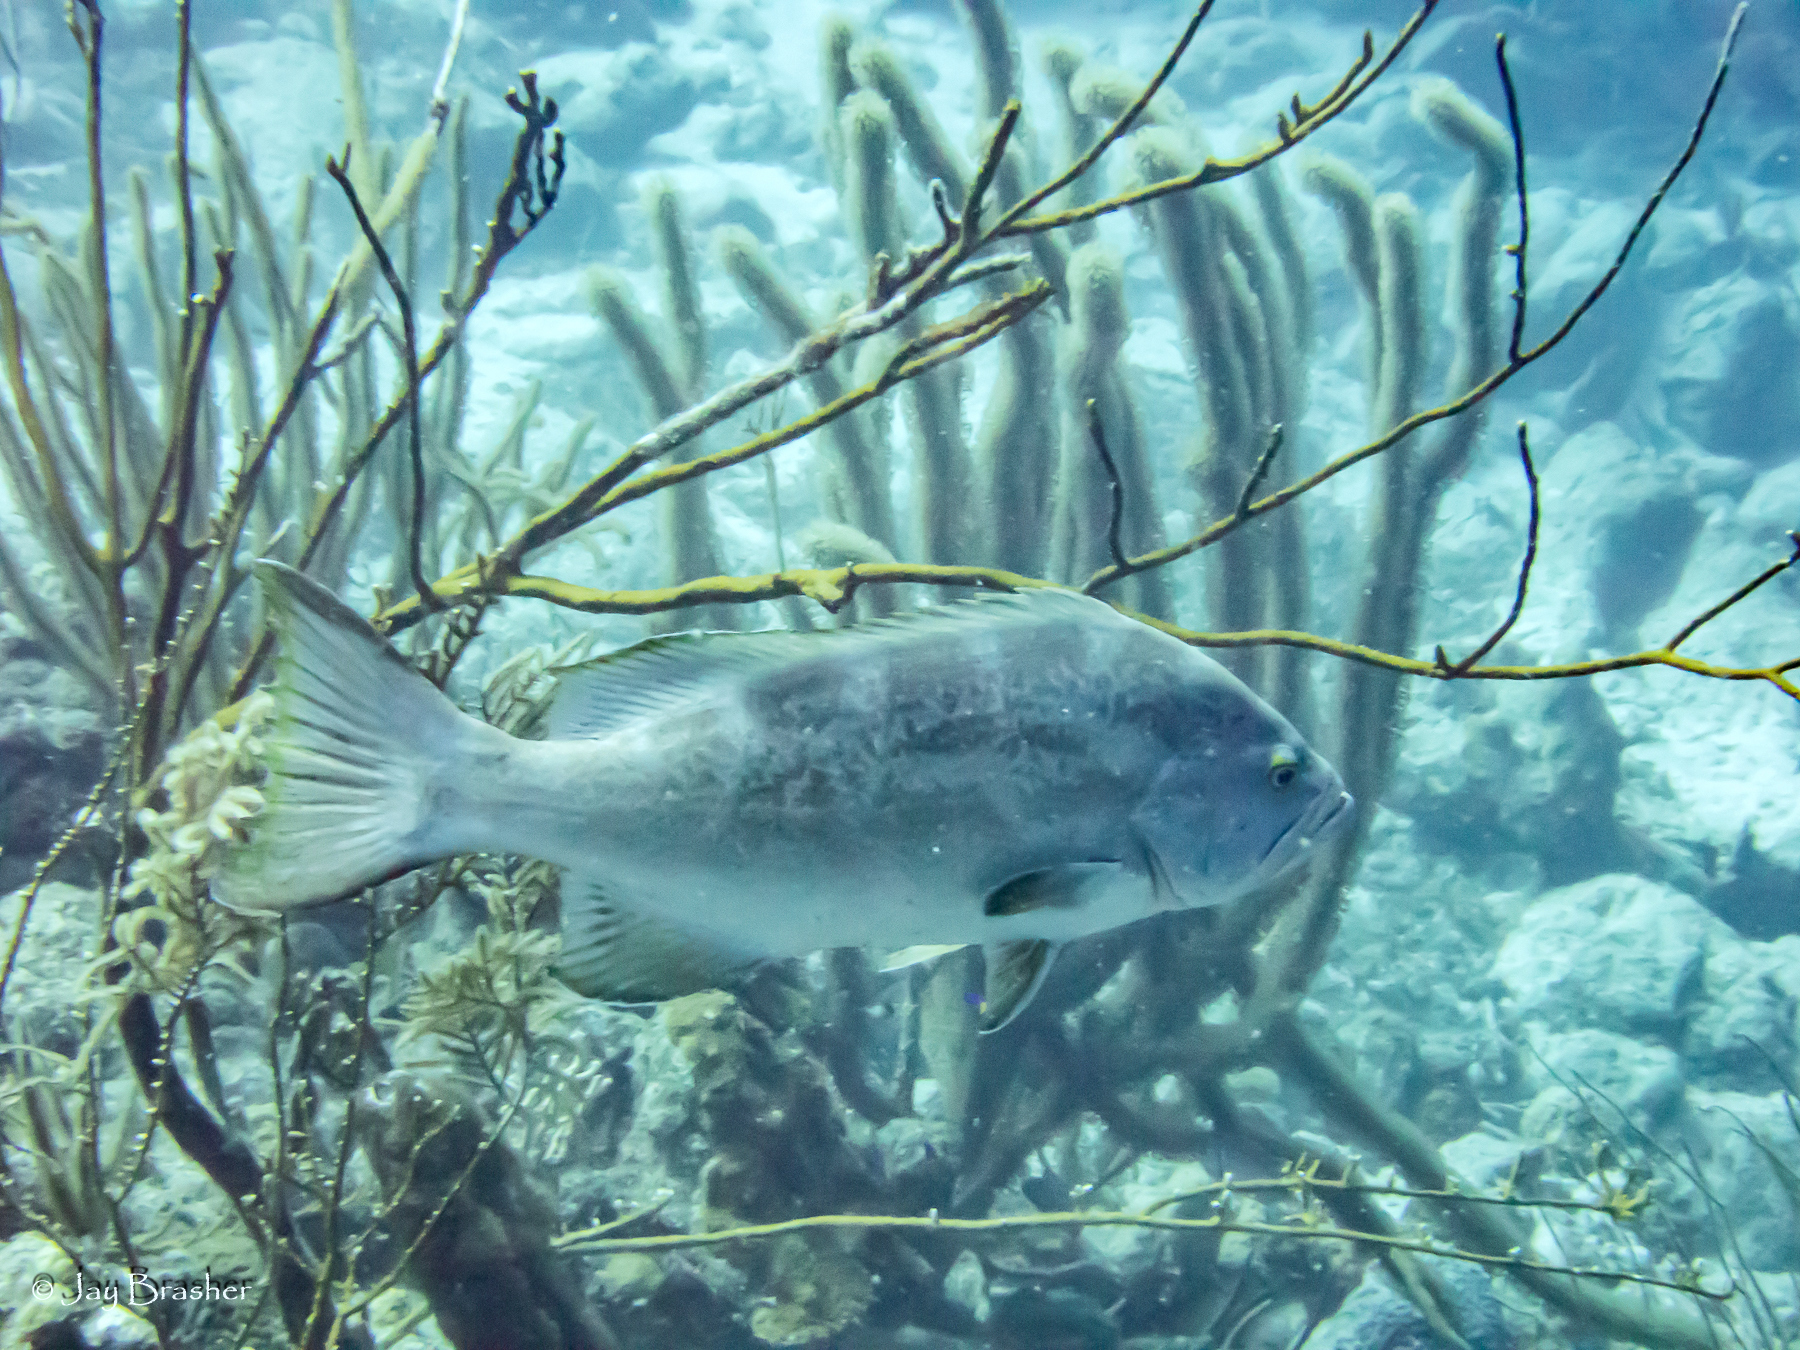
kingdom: Animalia
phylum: Chordata
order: Perciformes
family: Serranidae
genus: Mycteroperca
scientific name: Mycteroperca bonaci
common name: Black grouper
